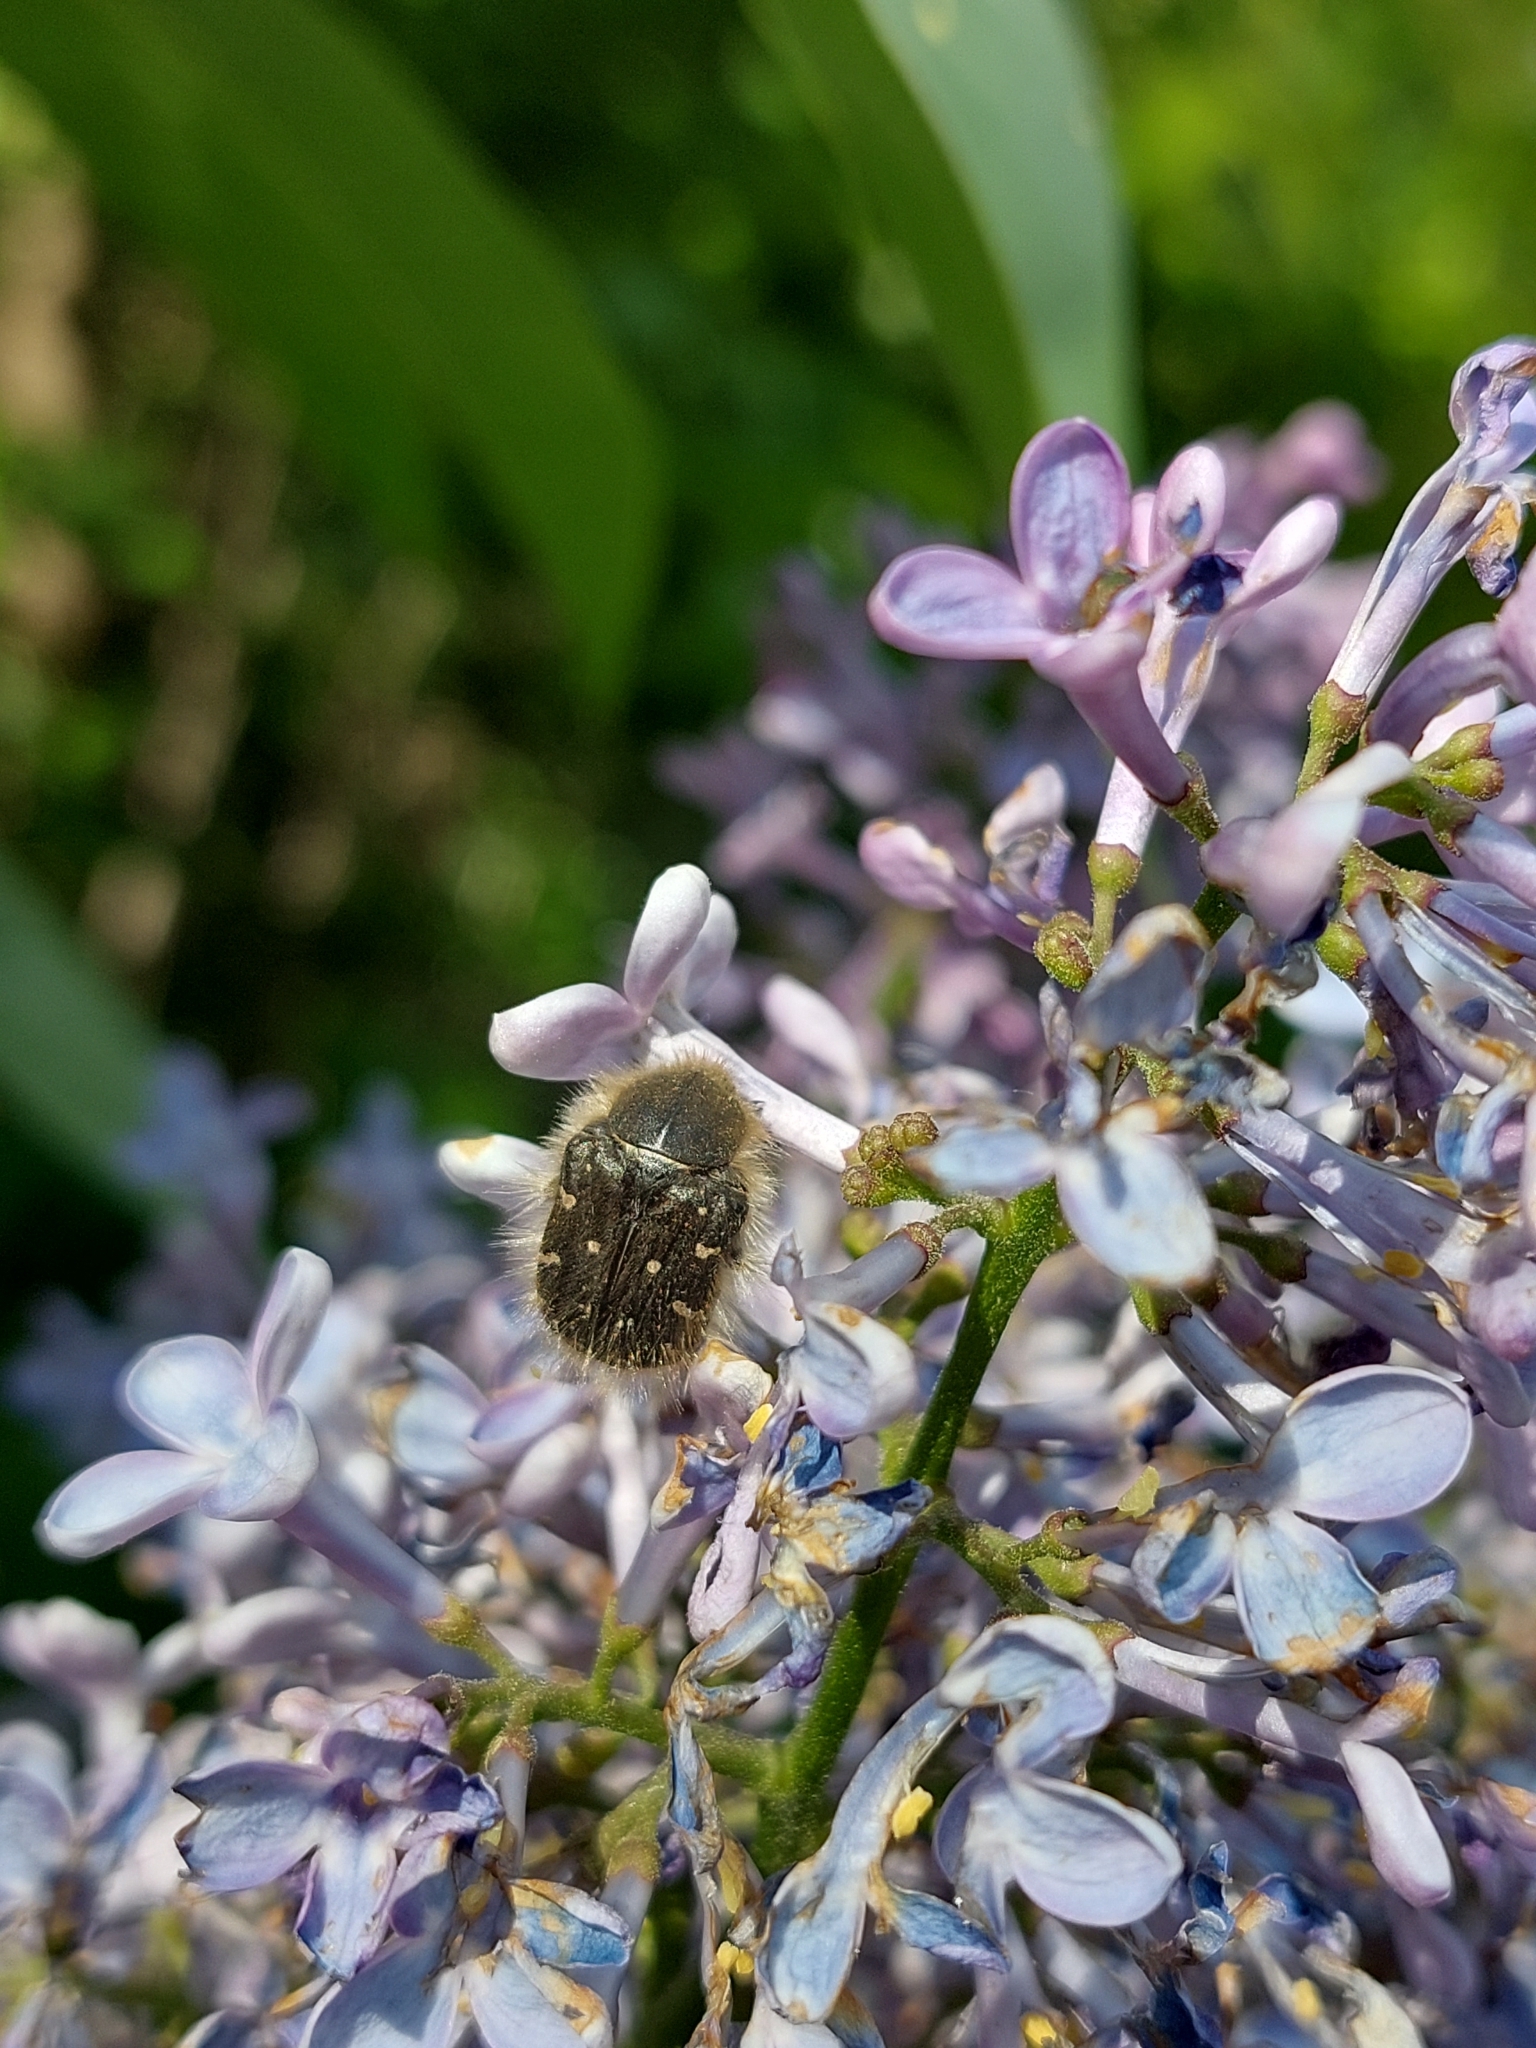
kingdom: Animalia
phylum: Arthropoda
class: Insecta
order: Coleoptera
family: Scarabaeidae
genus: Tropinota
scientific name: Tropinota hirta
